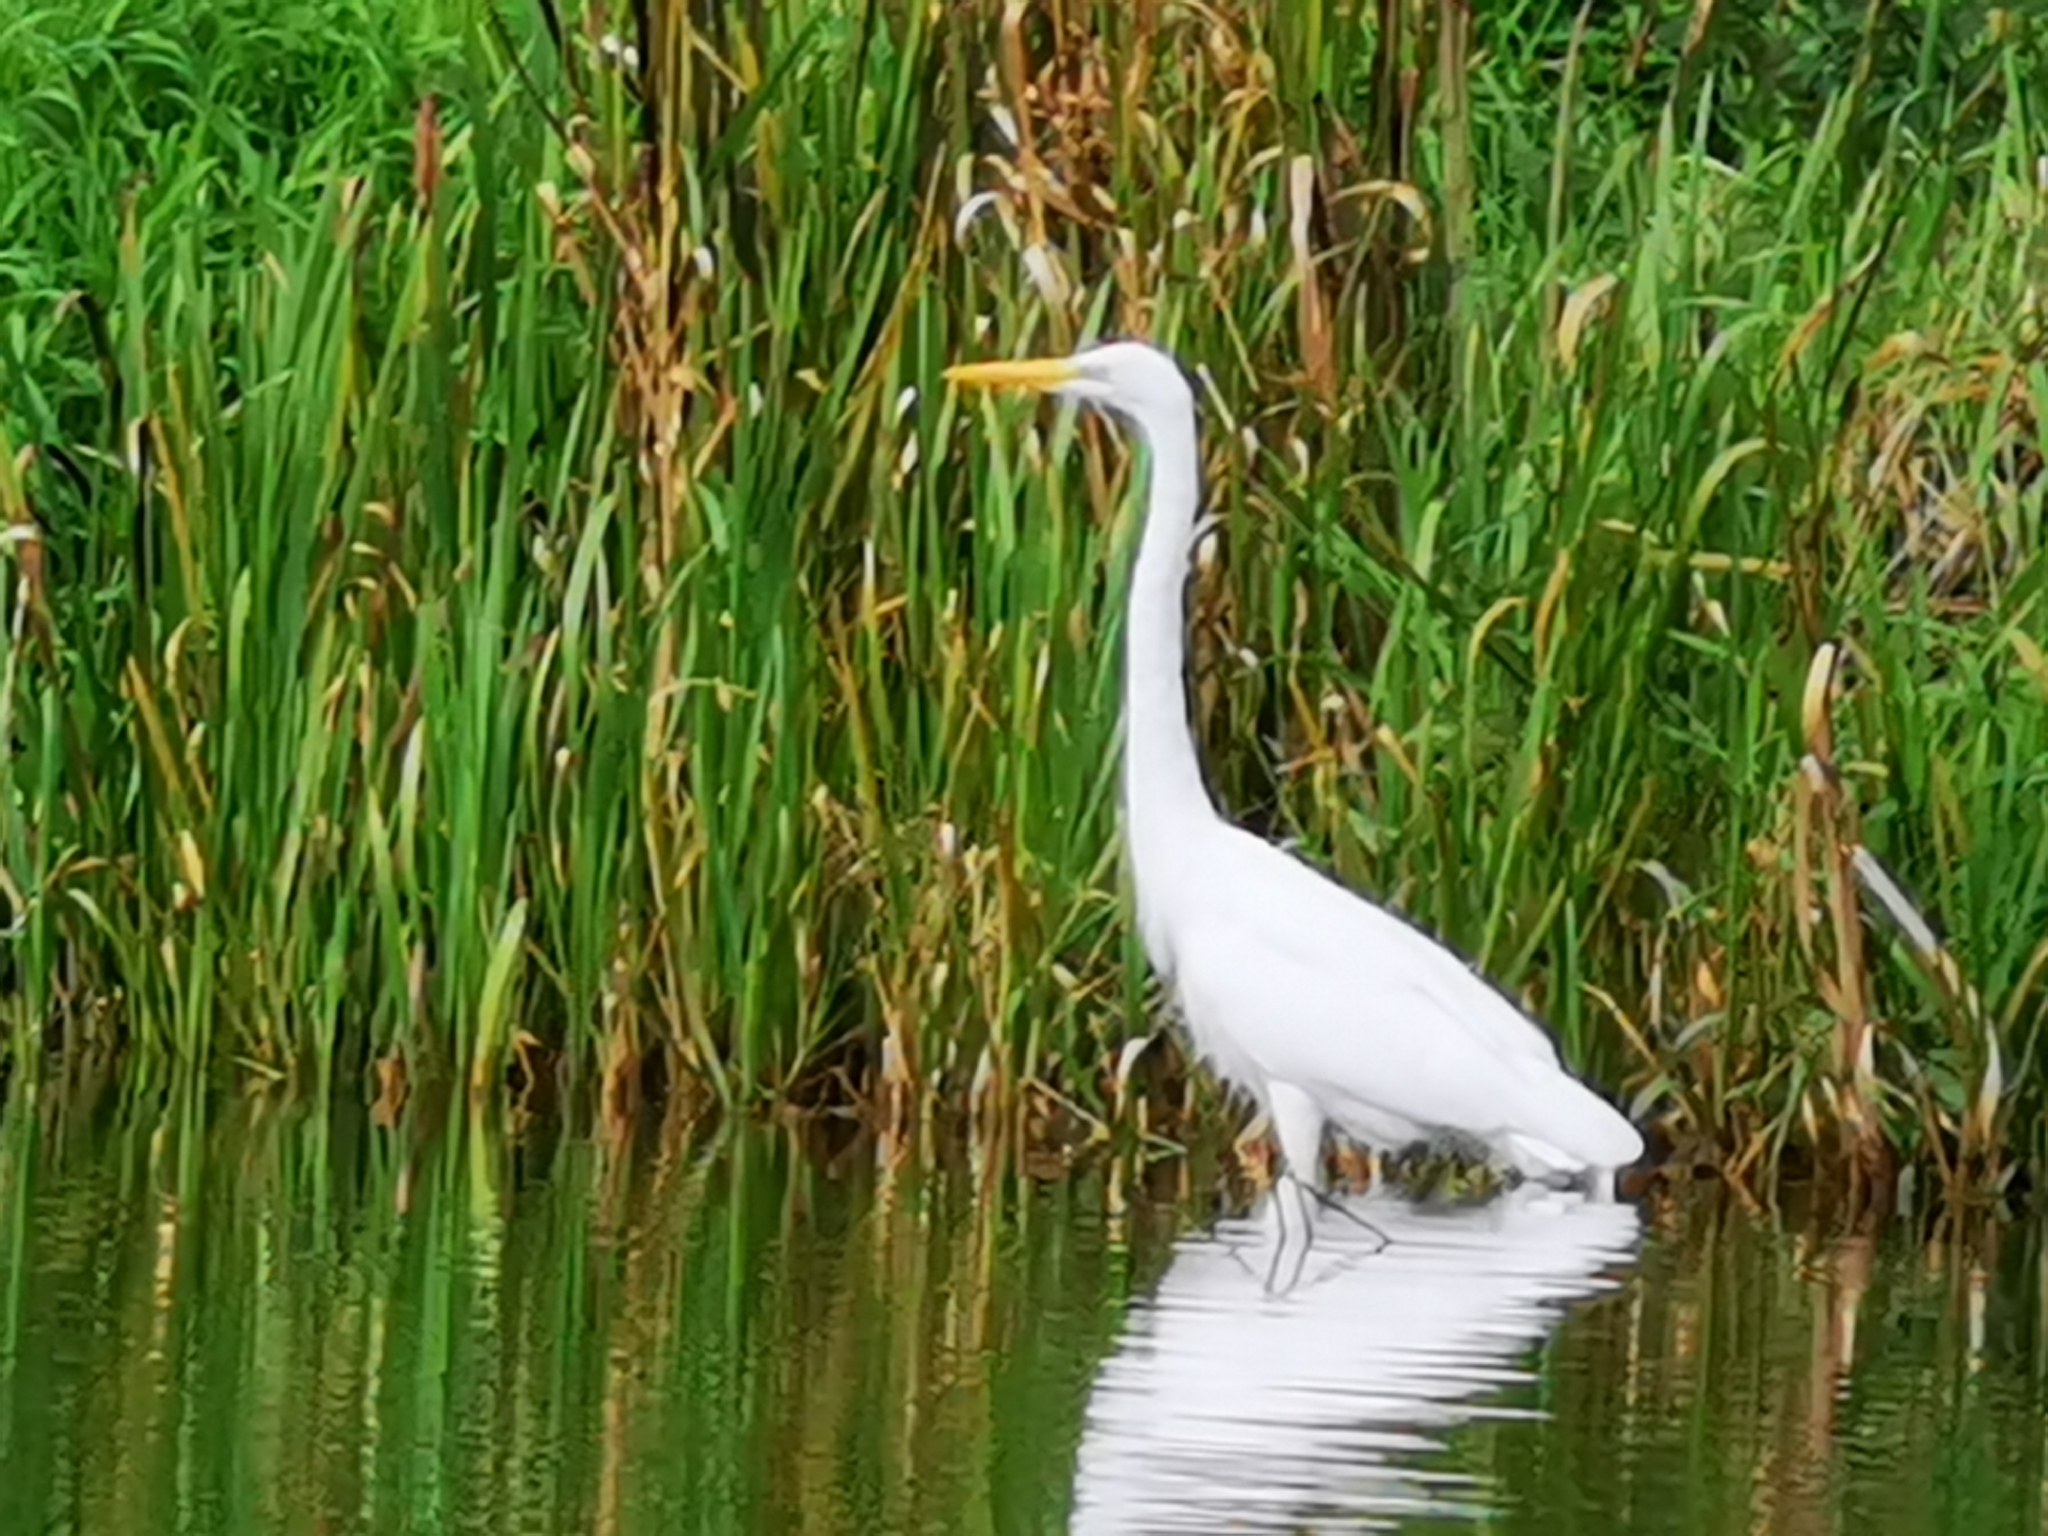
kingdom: Animalia
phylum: Chordata
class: Aves
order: Pelecaniformes
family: Ardeidae
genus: Ardea
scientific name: Ardea alba
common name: Great egret
